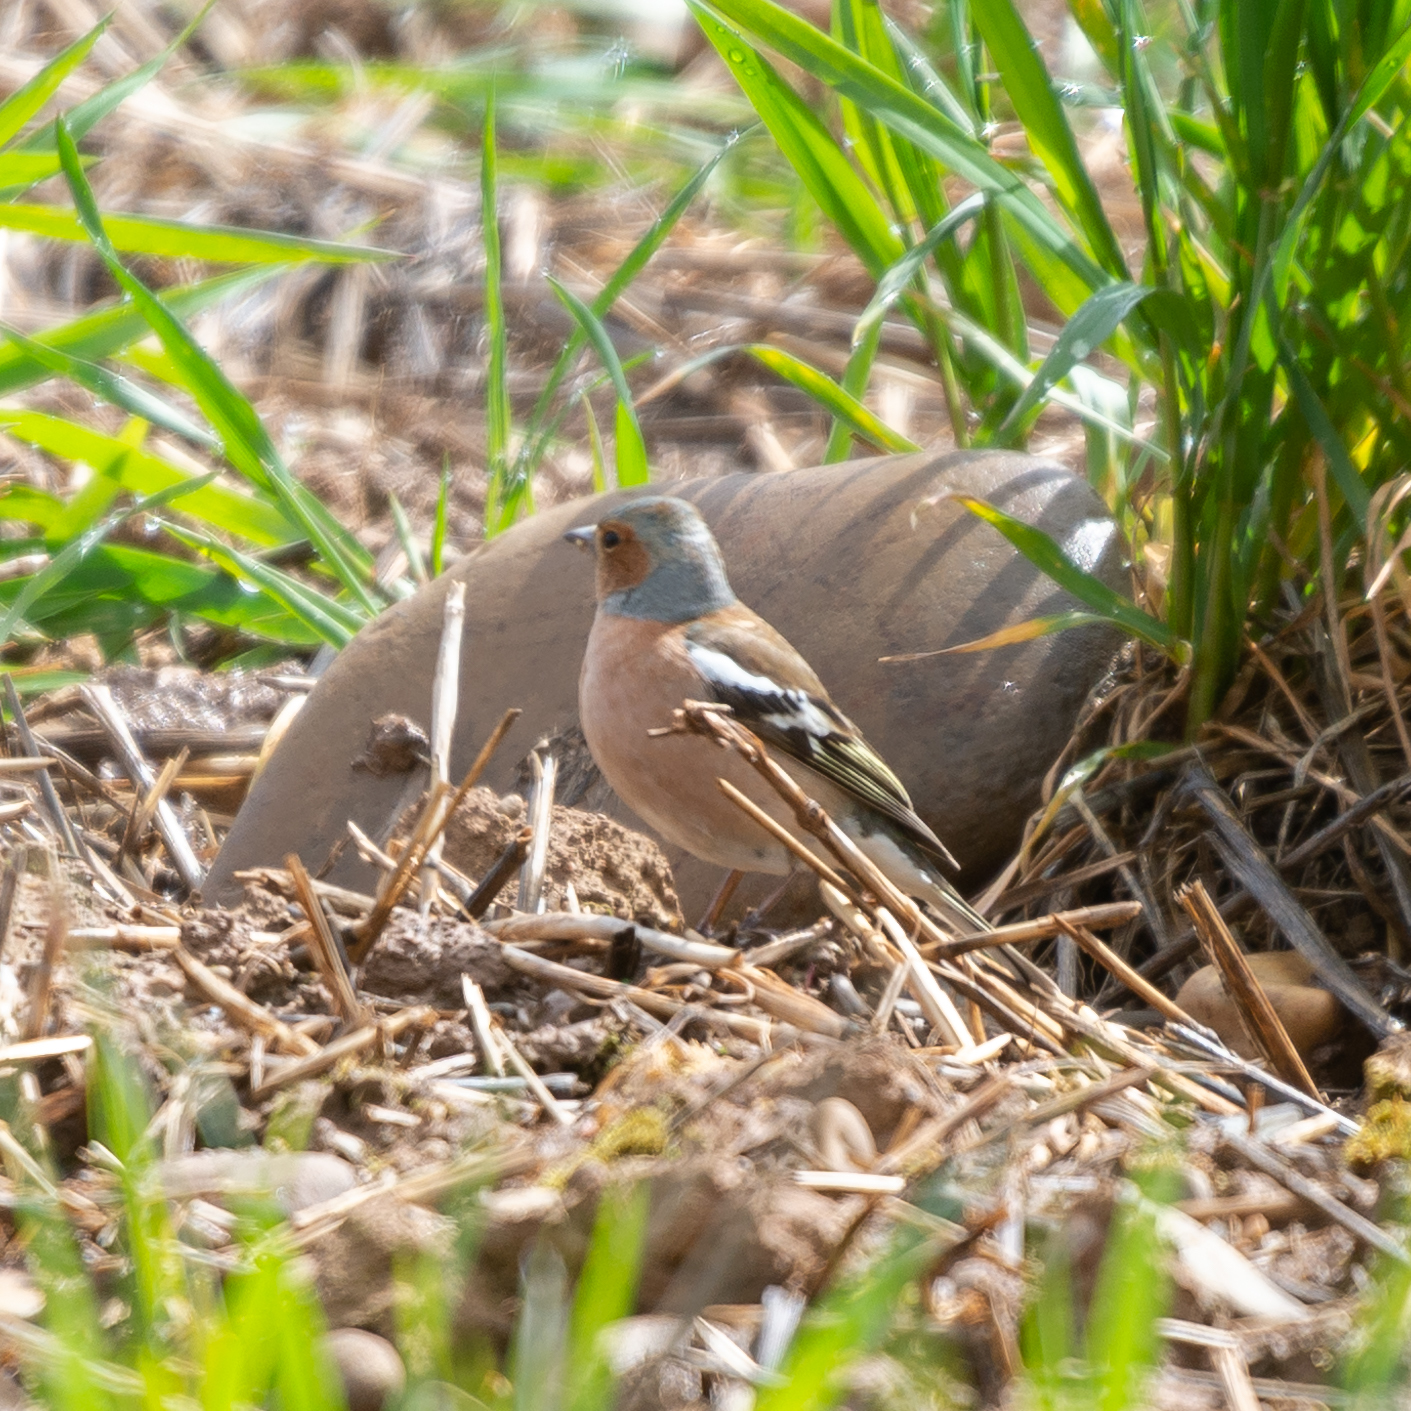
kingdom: Animalia
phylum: Chordata
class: Aves
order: Passeriformes
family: Fringillidae
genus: Fringilla
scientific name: Fringilla coelebs
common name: Common chaffinch
